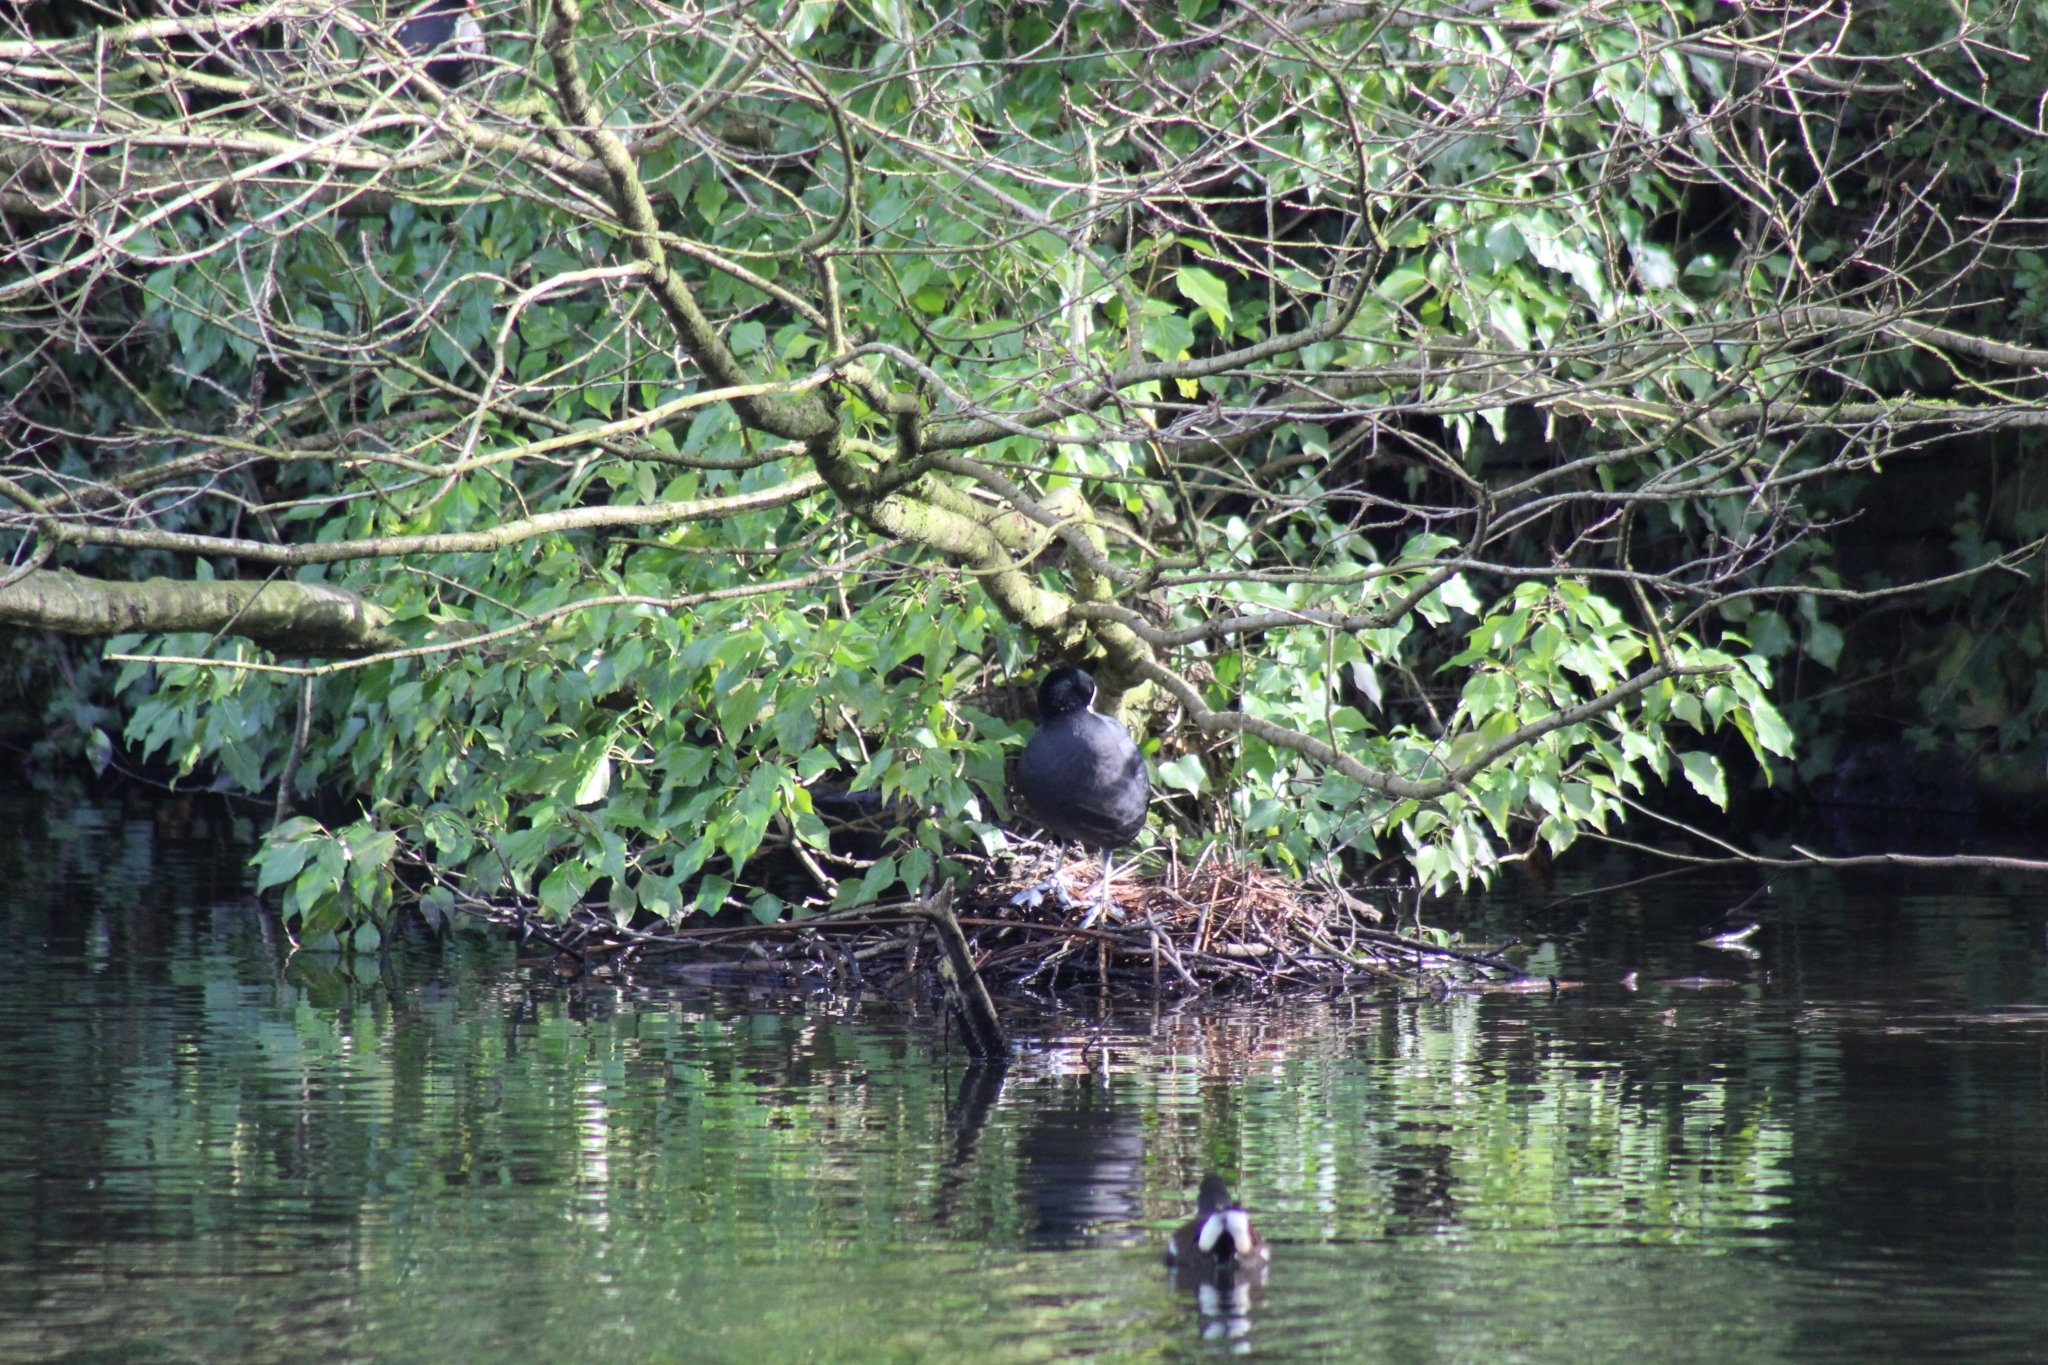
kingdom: Animalia
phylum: Chordata
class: Aves
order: Gruiformes
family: Rallidae
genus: Fulica
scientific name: Fulica atra
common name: Eurasian coot
